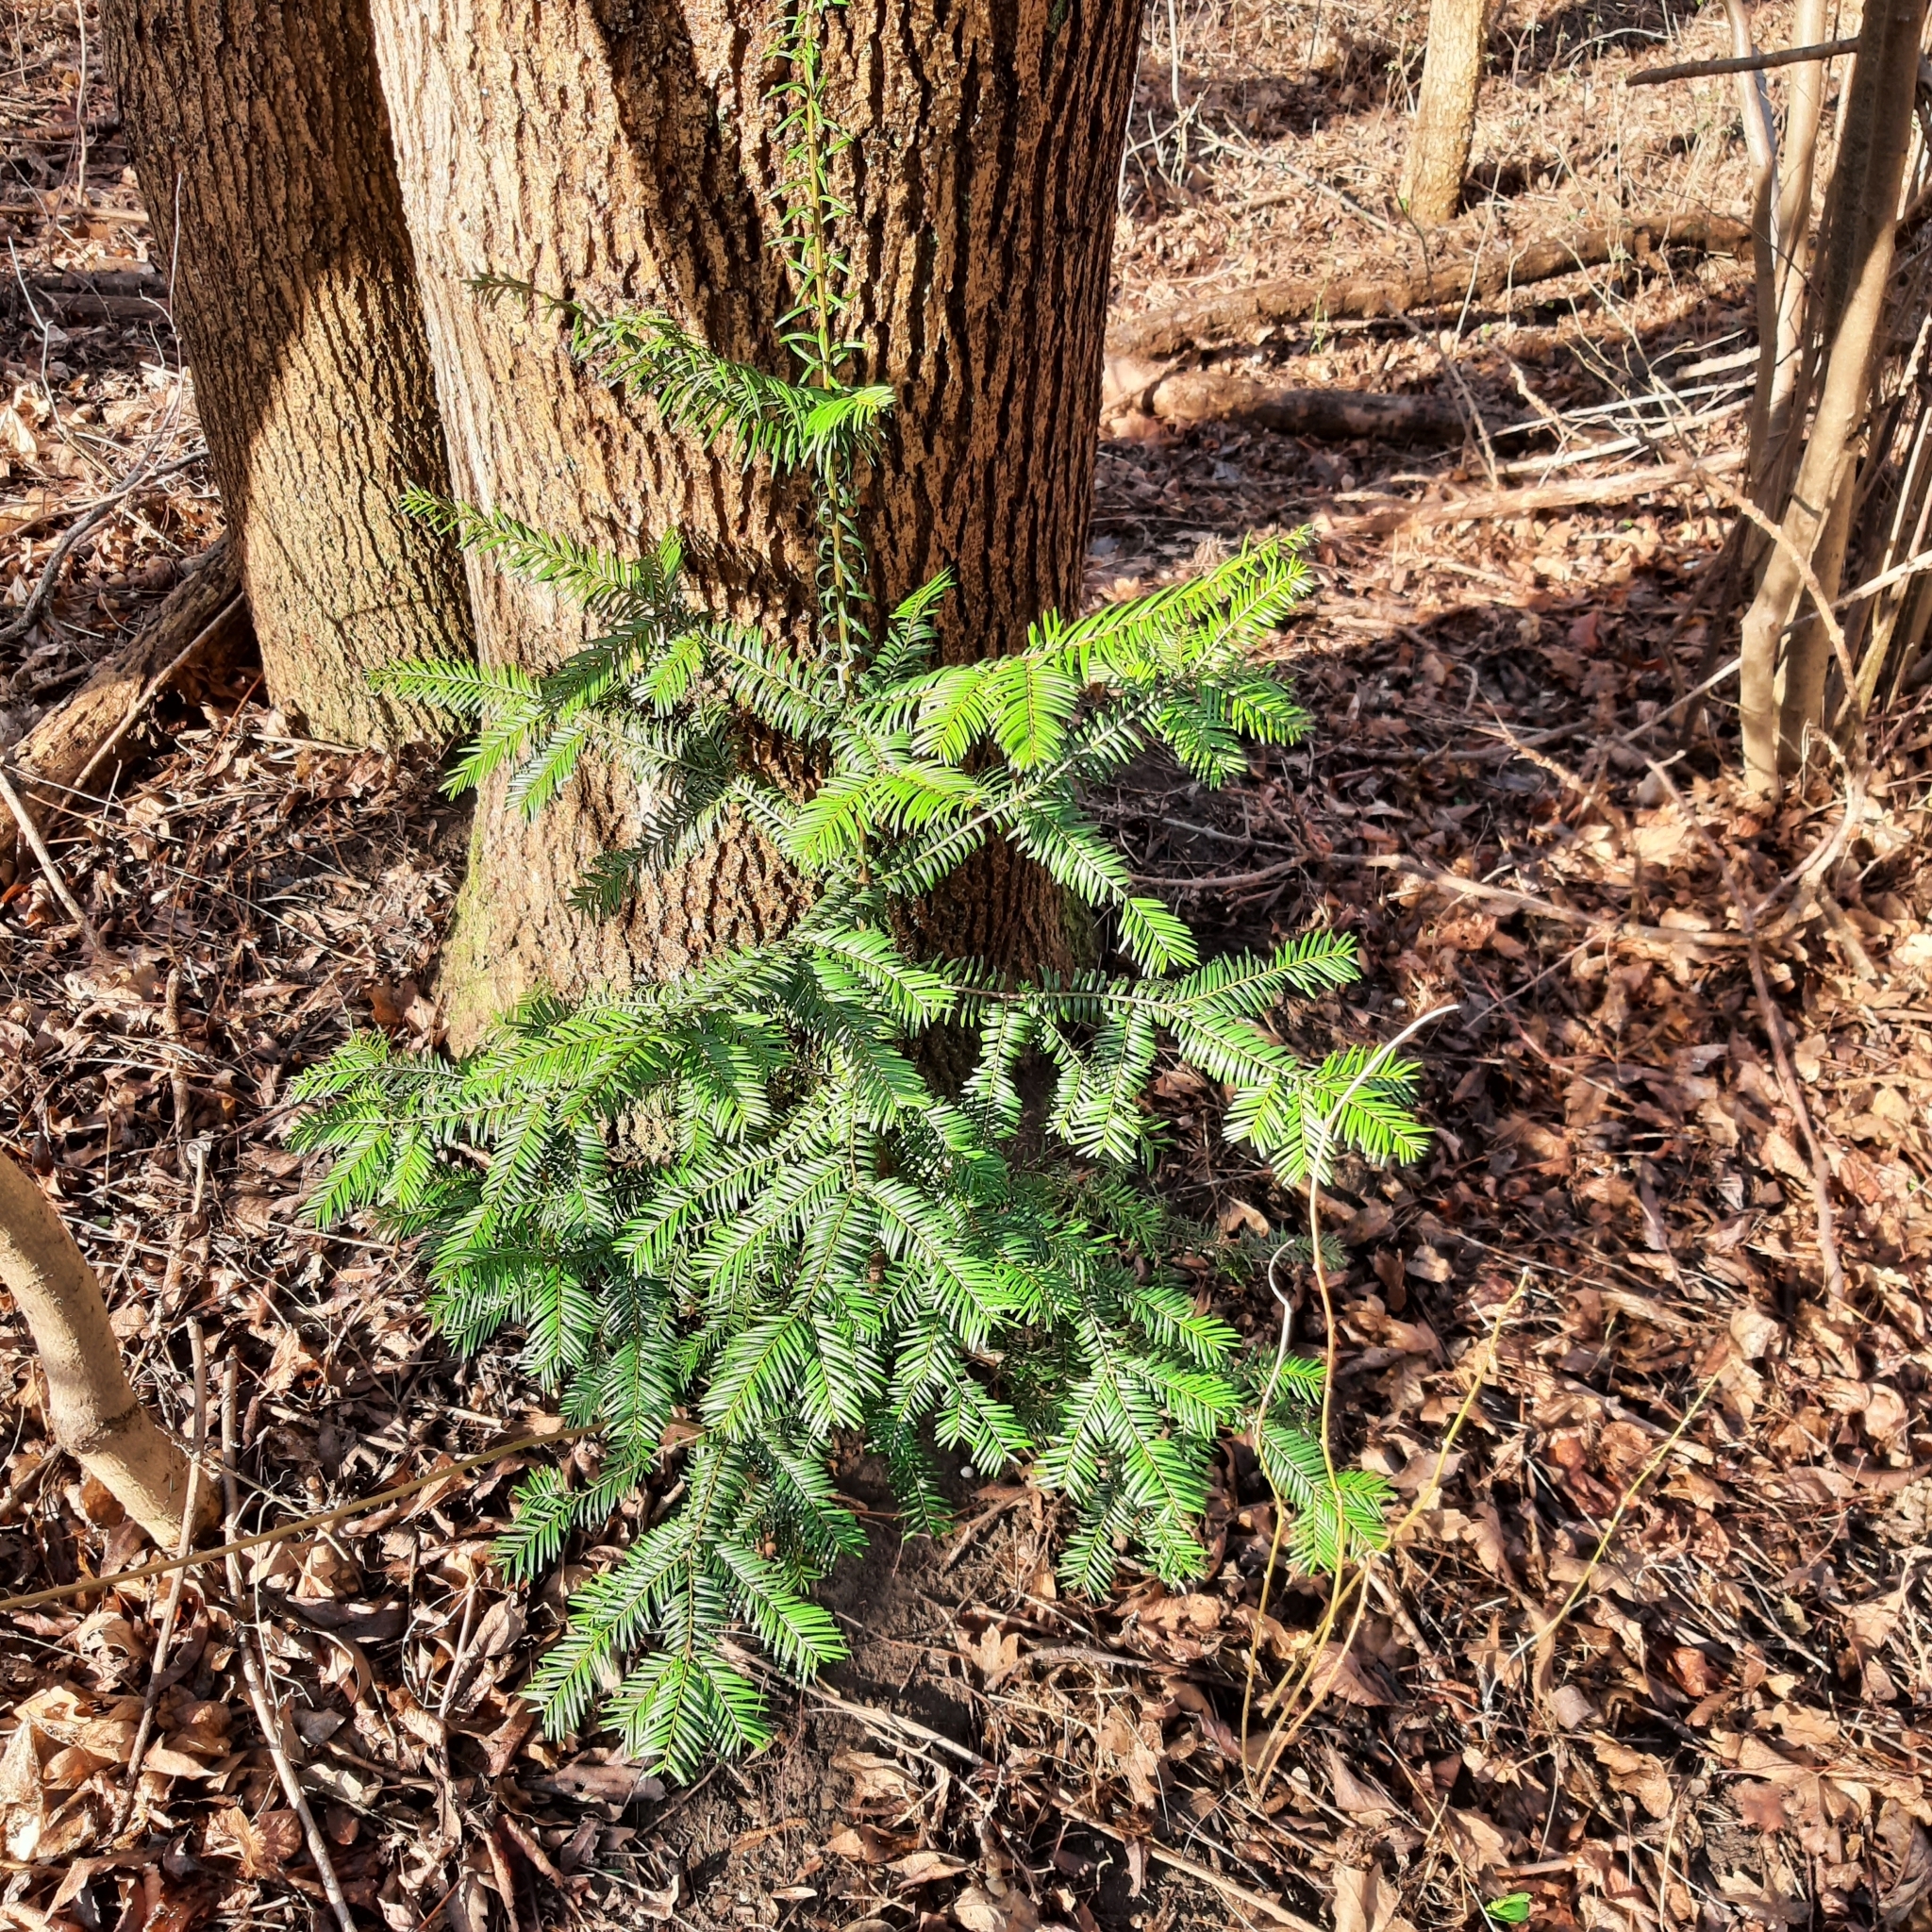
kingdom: Plantae
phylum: Tracheophyta
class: Pinopsida
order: Pinales
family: Taxaceae
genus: Taxus
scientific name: Taxus baccata
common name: Yew
